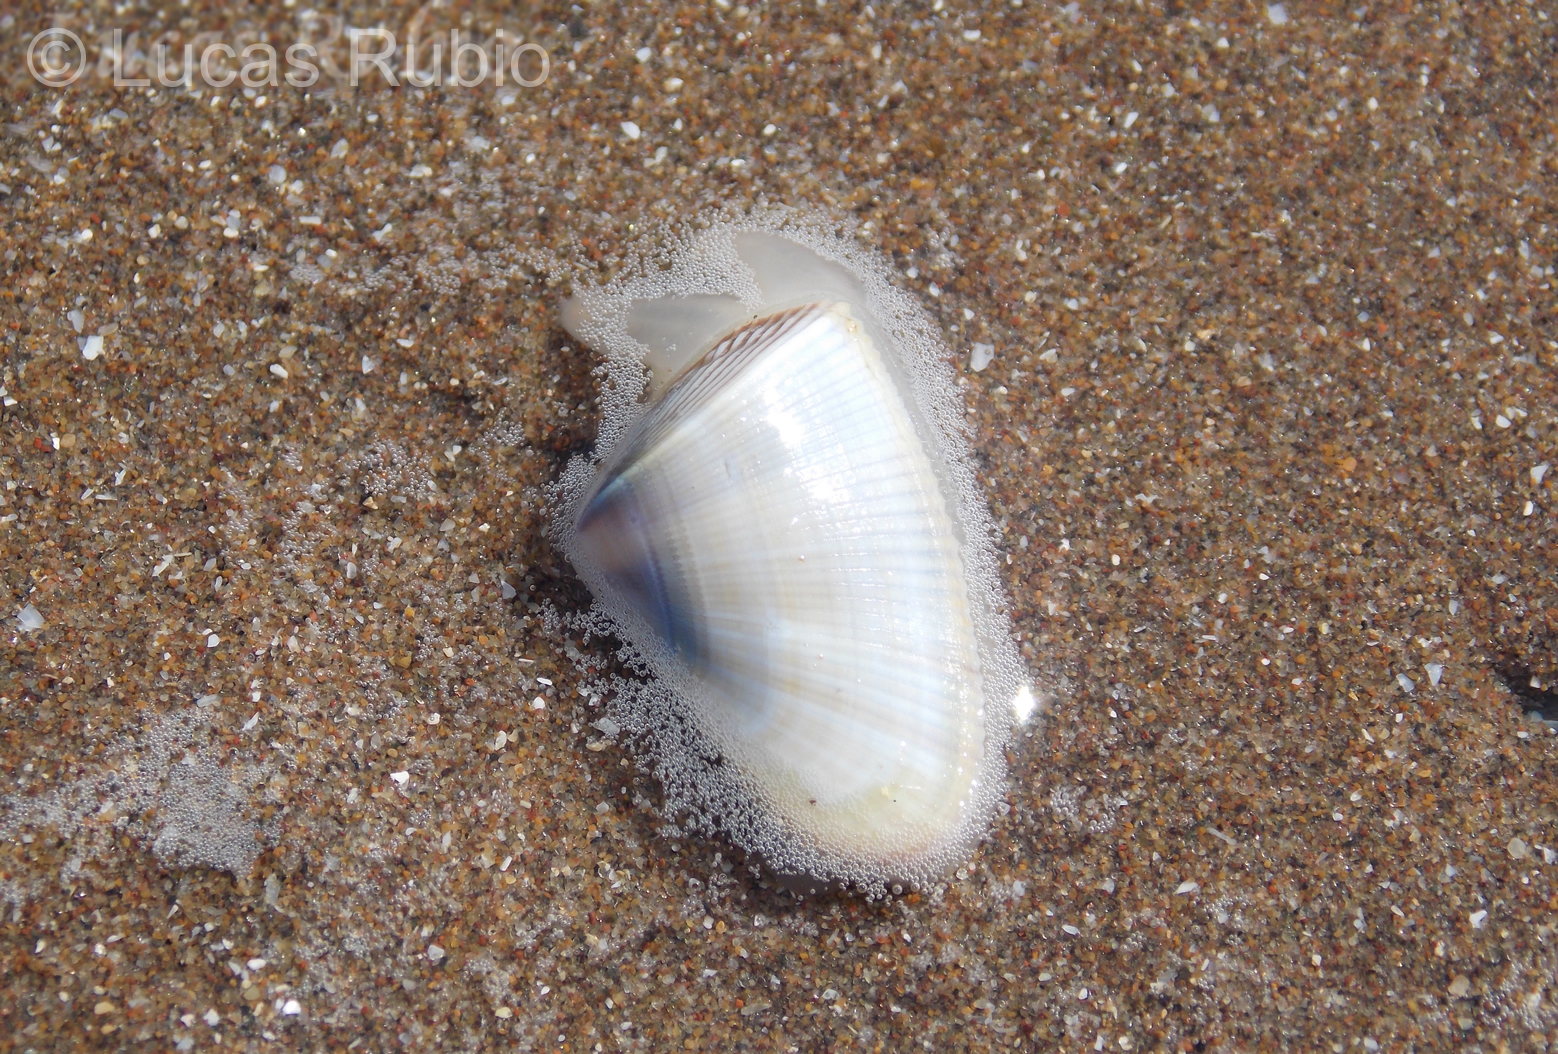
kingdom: Animalia
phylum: Mollusca
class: Bivalvia
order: Cardiida
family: Donacidae
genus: Donax
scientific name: Donax hanleyanus
